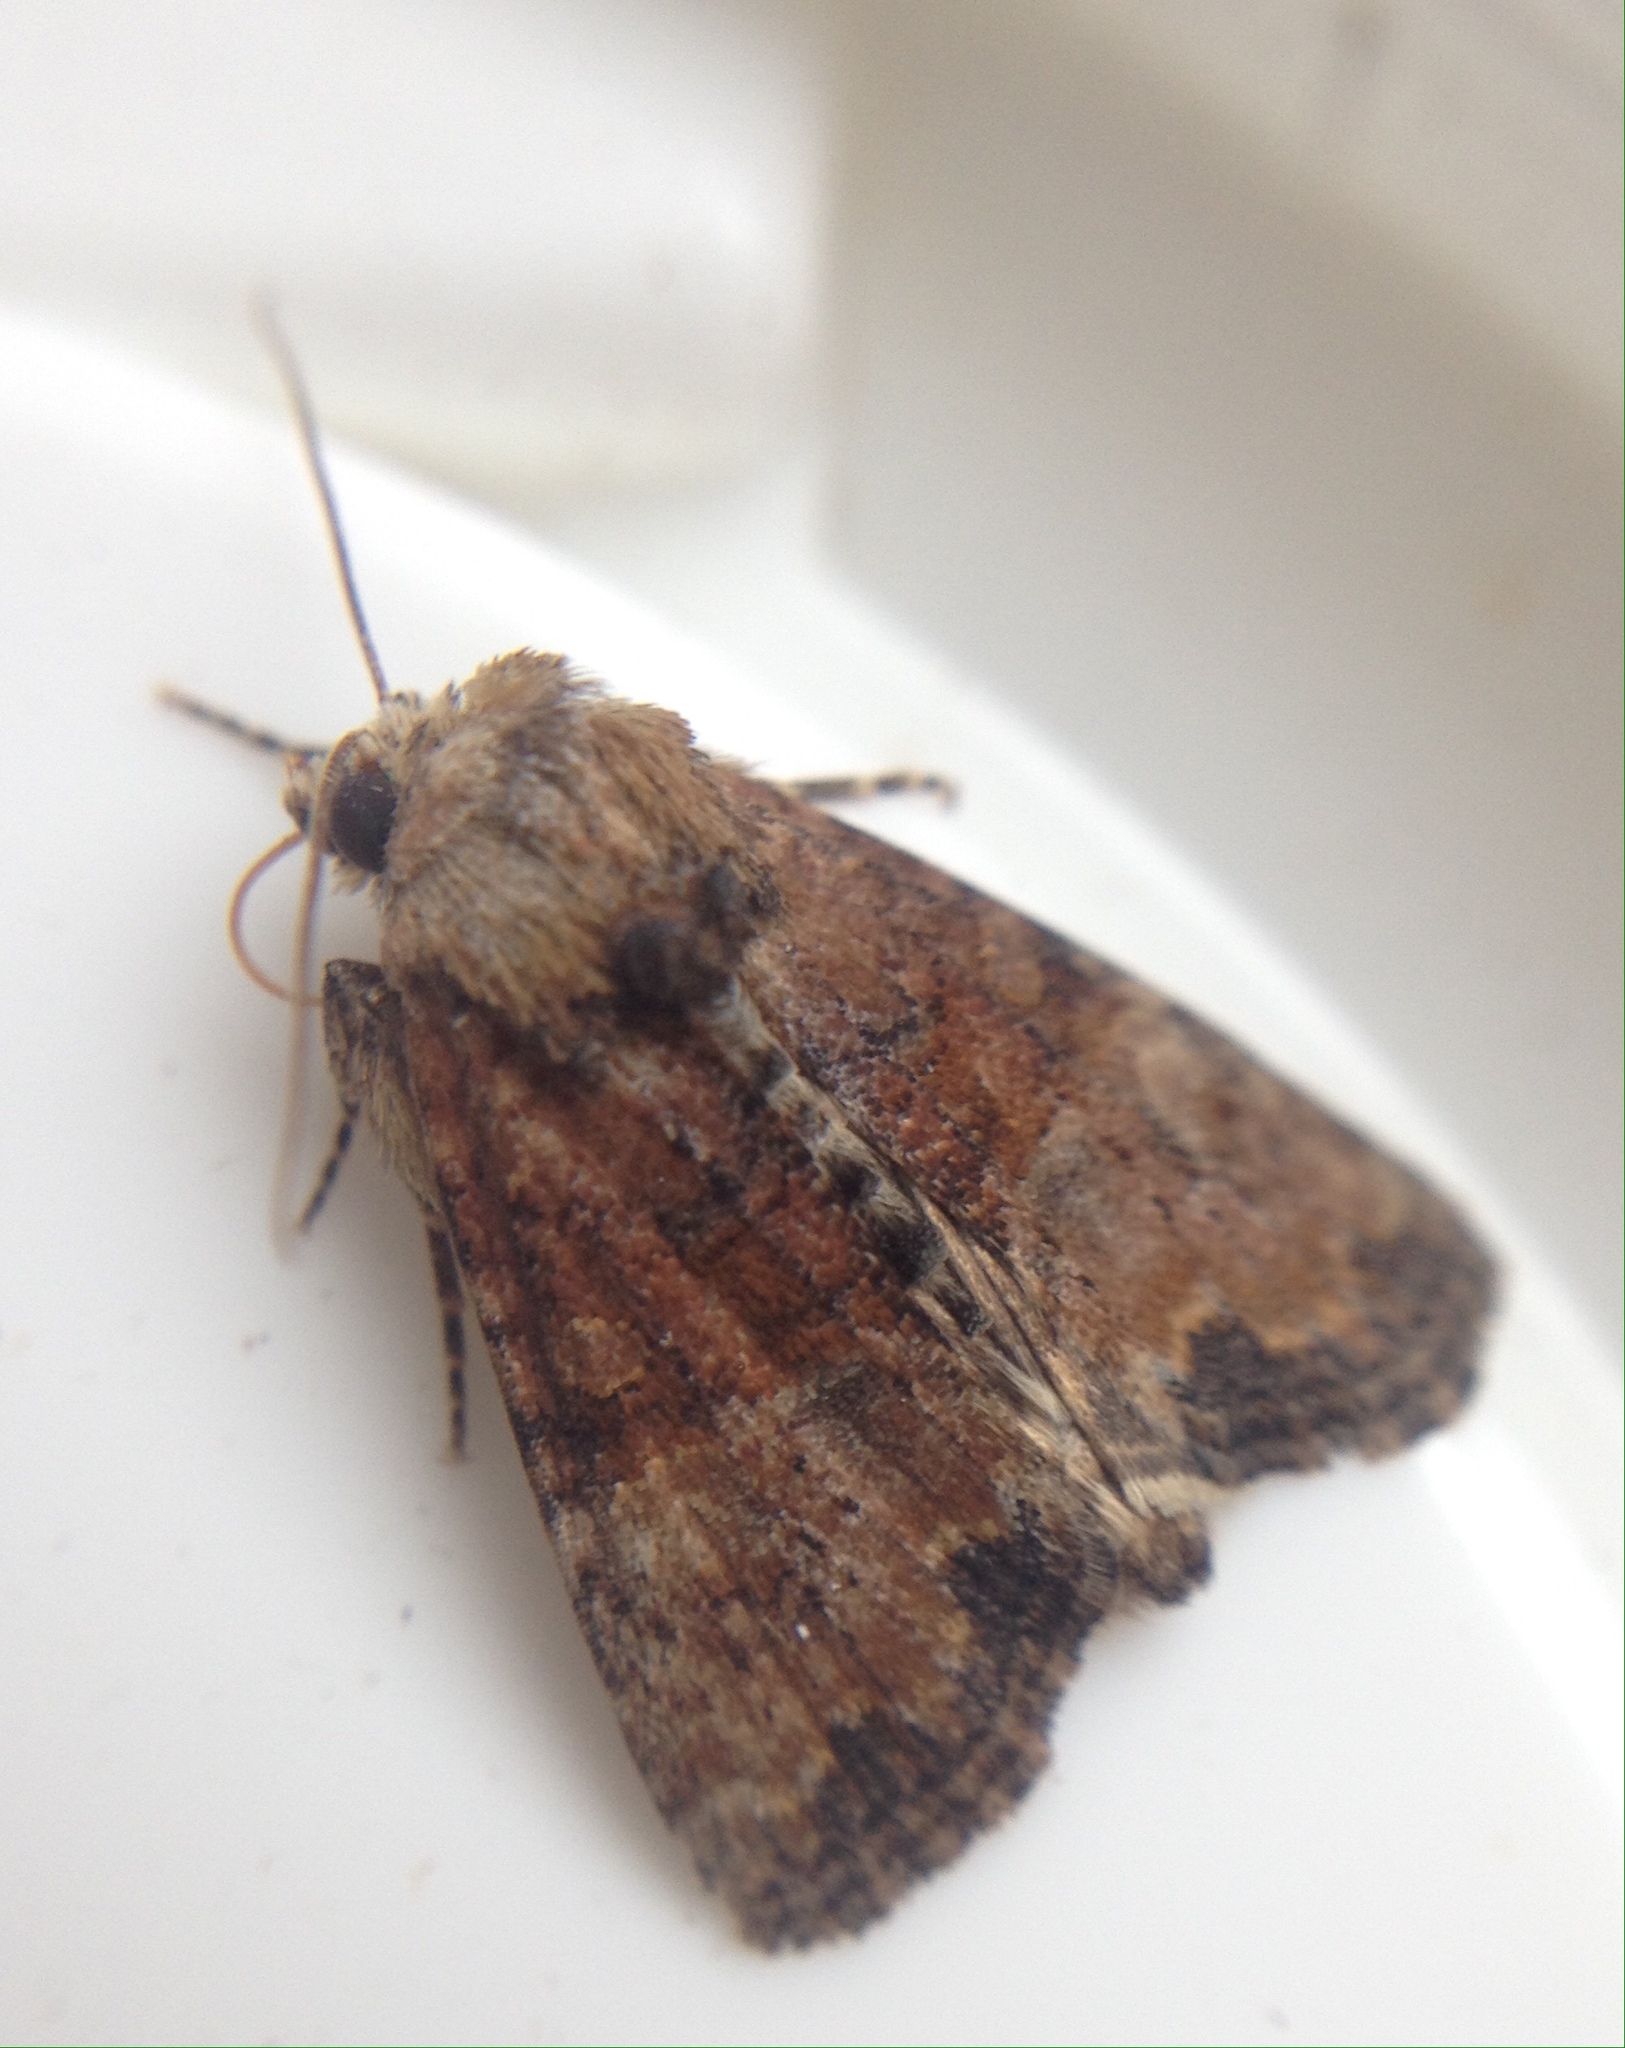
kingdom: Animalia
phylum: Arthropoda
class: Insecta
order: Lepidoptera
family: Noctuidae
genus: Mesoligia
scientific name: Mesoligia furuncula
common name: Cloaked minor
